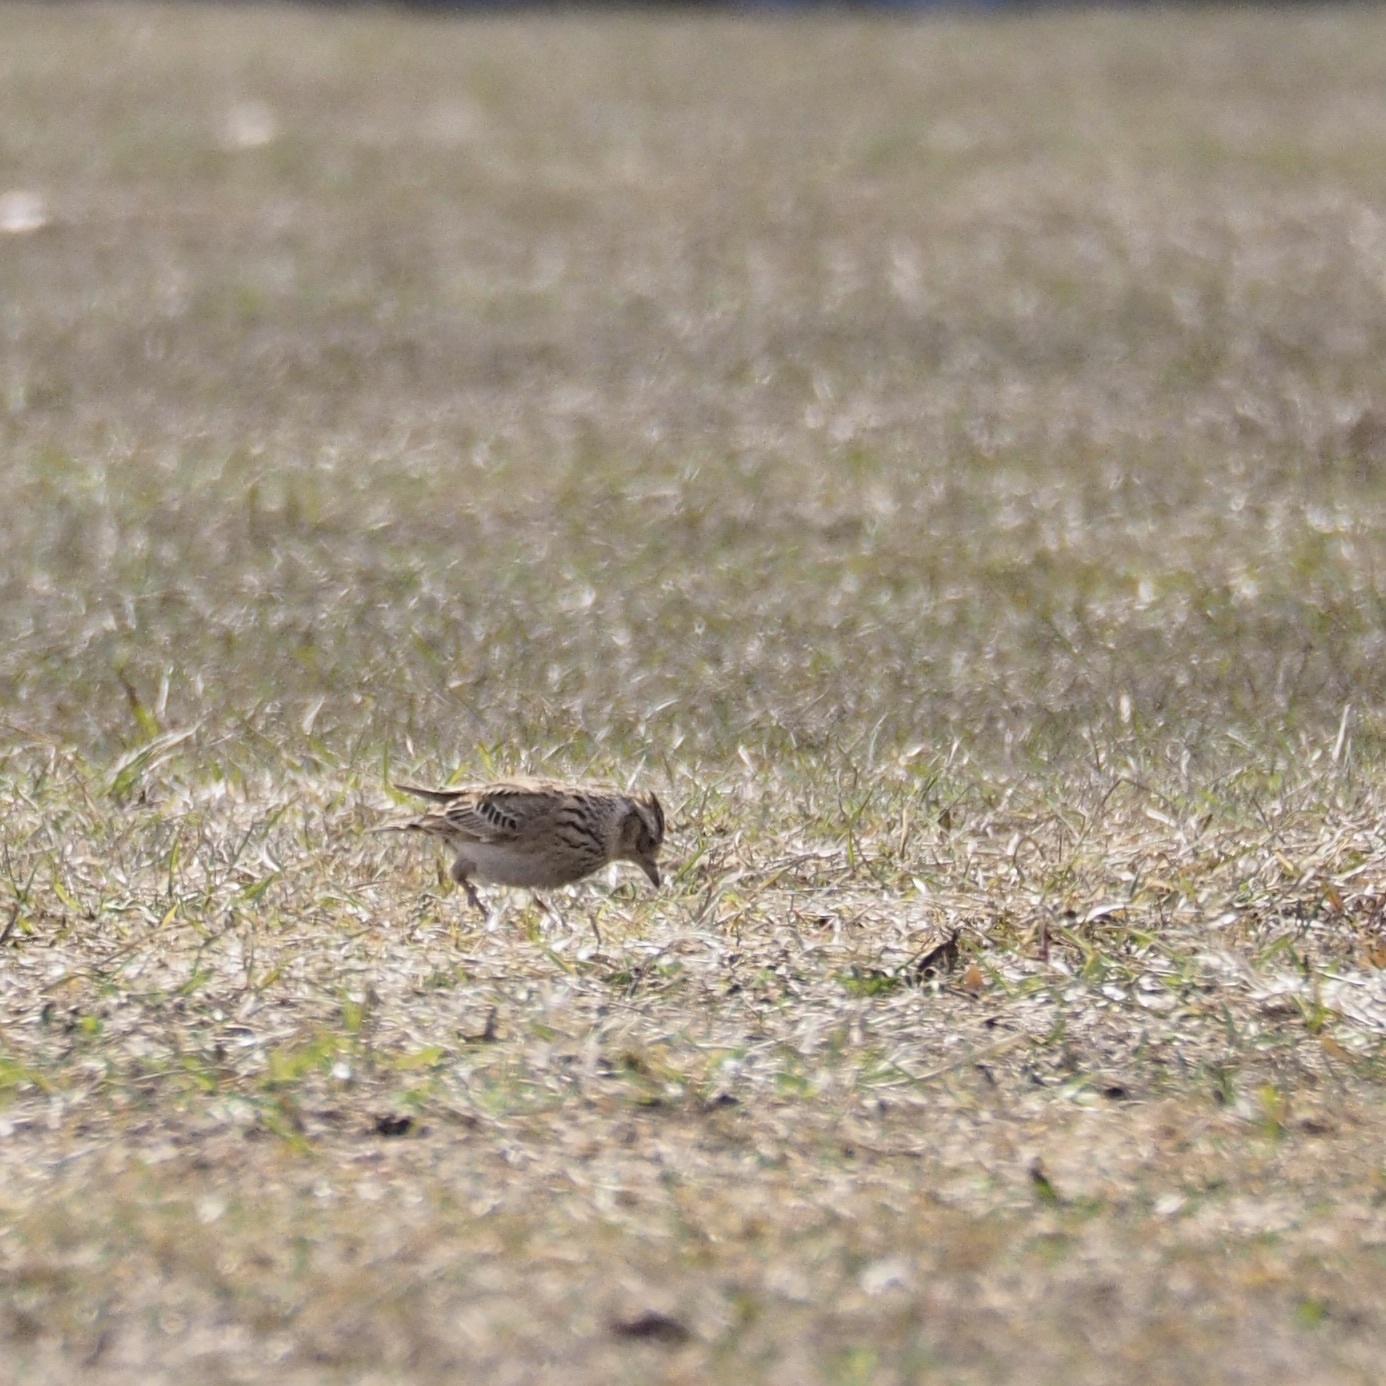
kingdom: Animalia
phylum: Chordata
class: Aves
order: Passeriformes
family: Alaudidae
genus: Alauda
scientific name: Alauda arvensis
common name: Eurasian skylark
